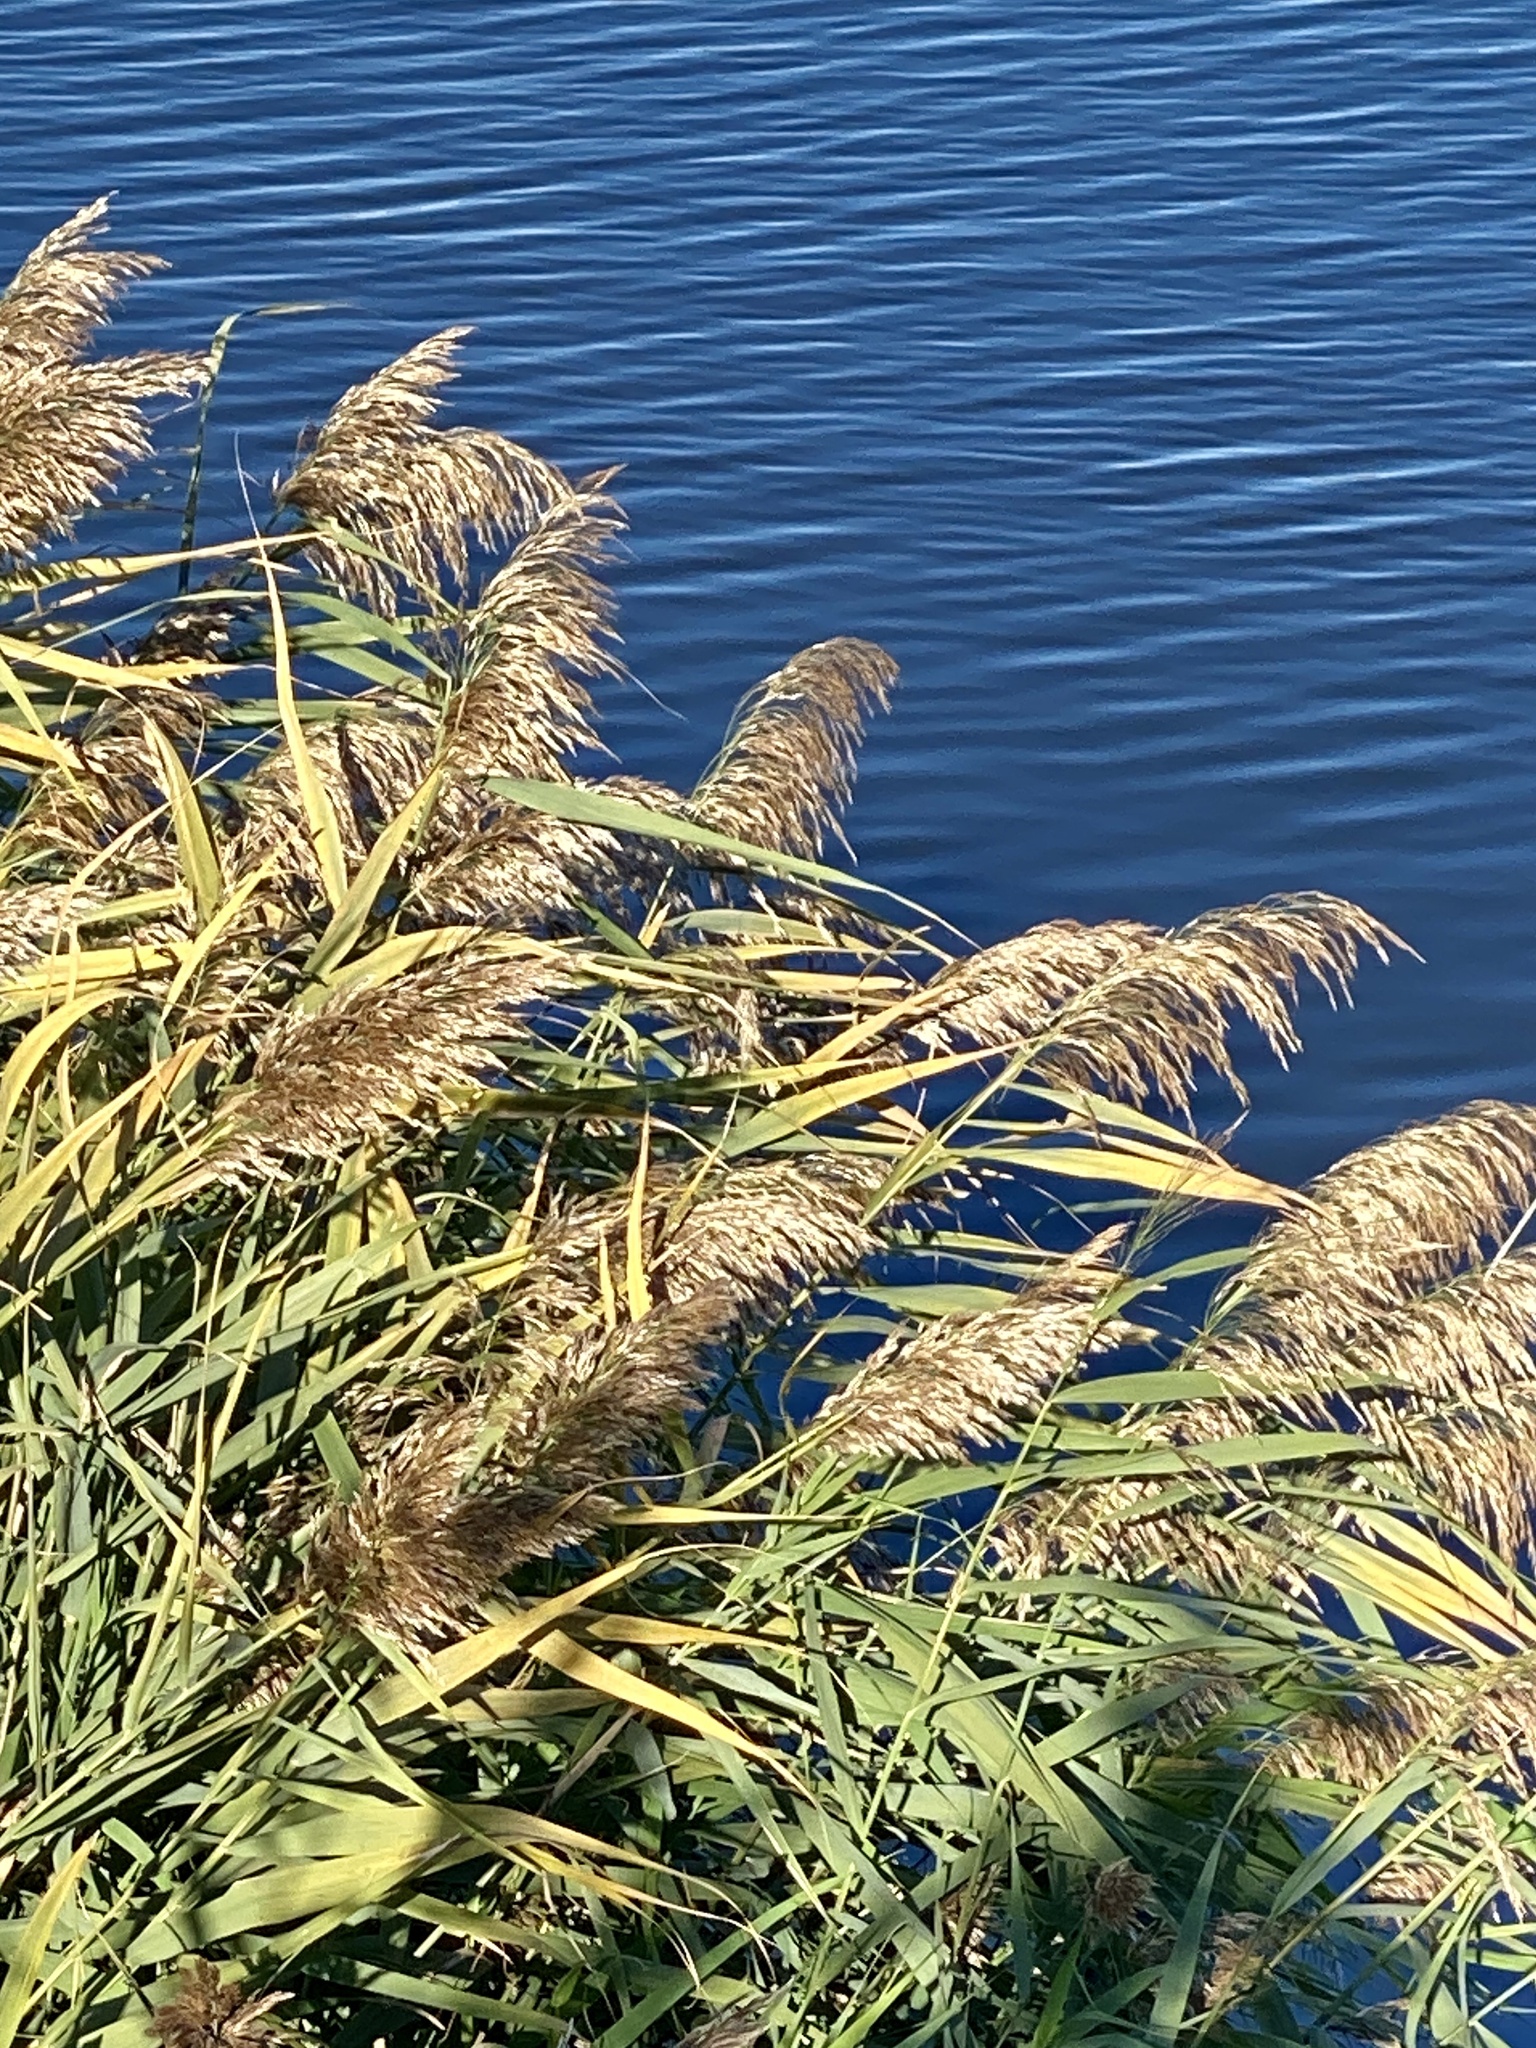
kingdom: Plantae
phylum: Tracheophyta
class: Liliopsida
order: Poales
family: Poaceae
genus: Phragmites
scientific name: Phragmites australis
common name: Common reed
